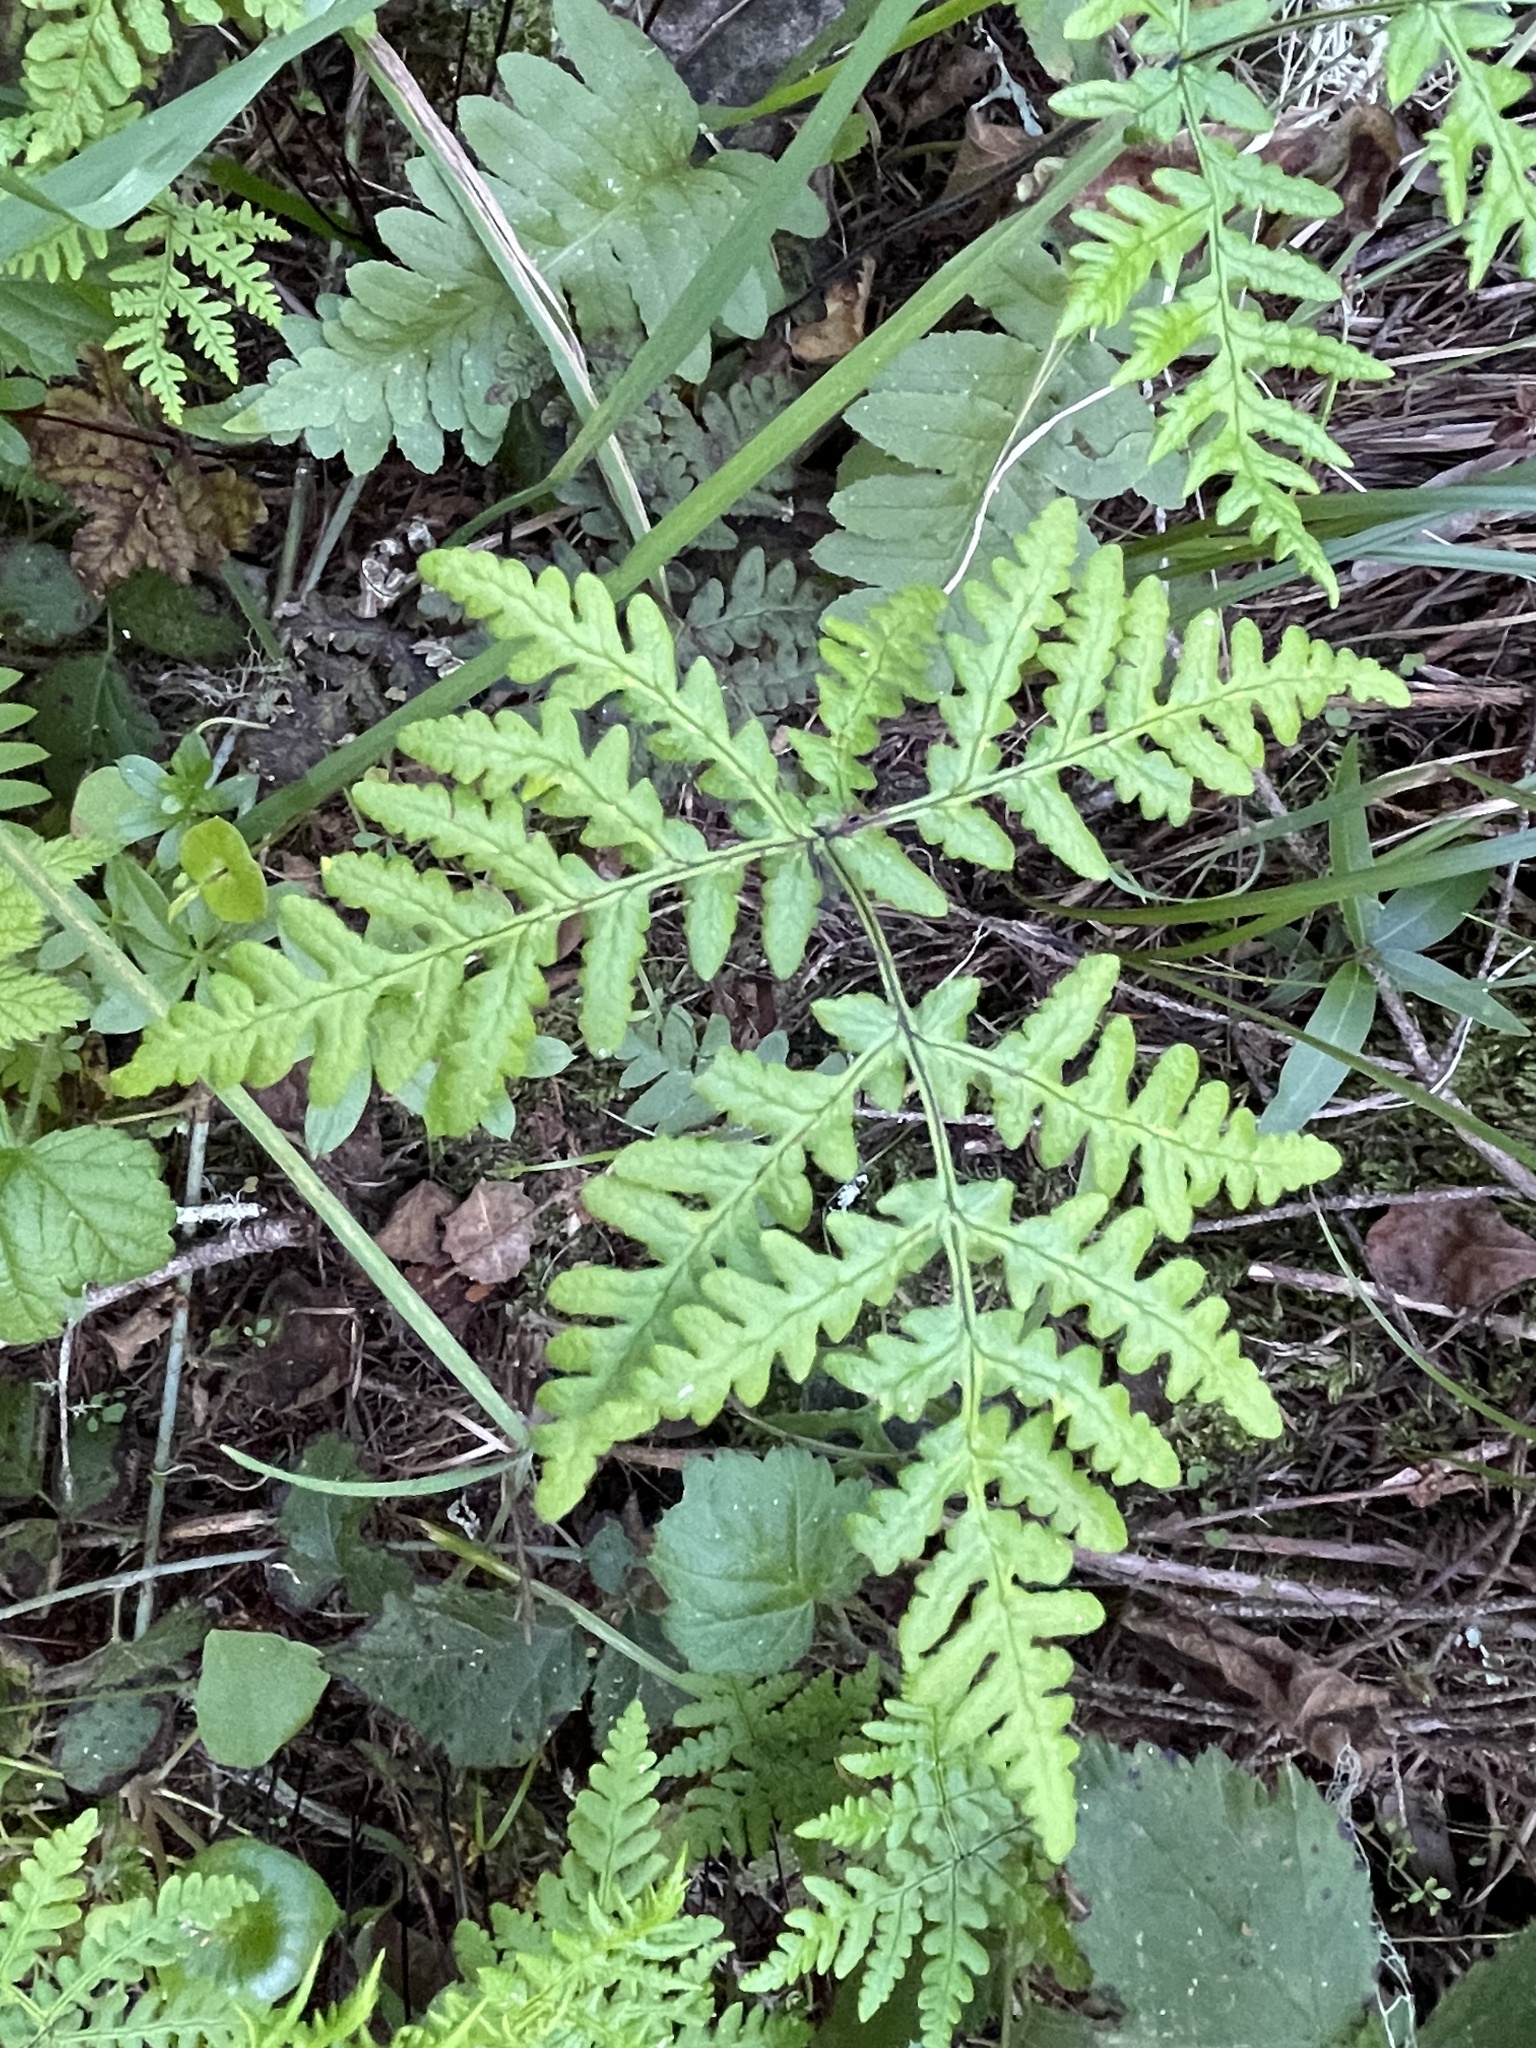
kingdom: Plantae
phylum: Tracheophyta
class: Polypodiopsida
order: Polypodiales
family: Pteridaceae
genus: Pentagramma
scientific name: Pentagramma triangularis
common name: Gold fern
